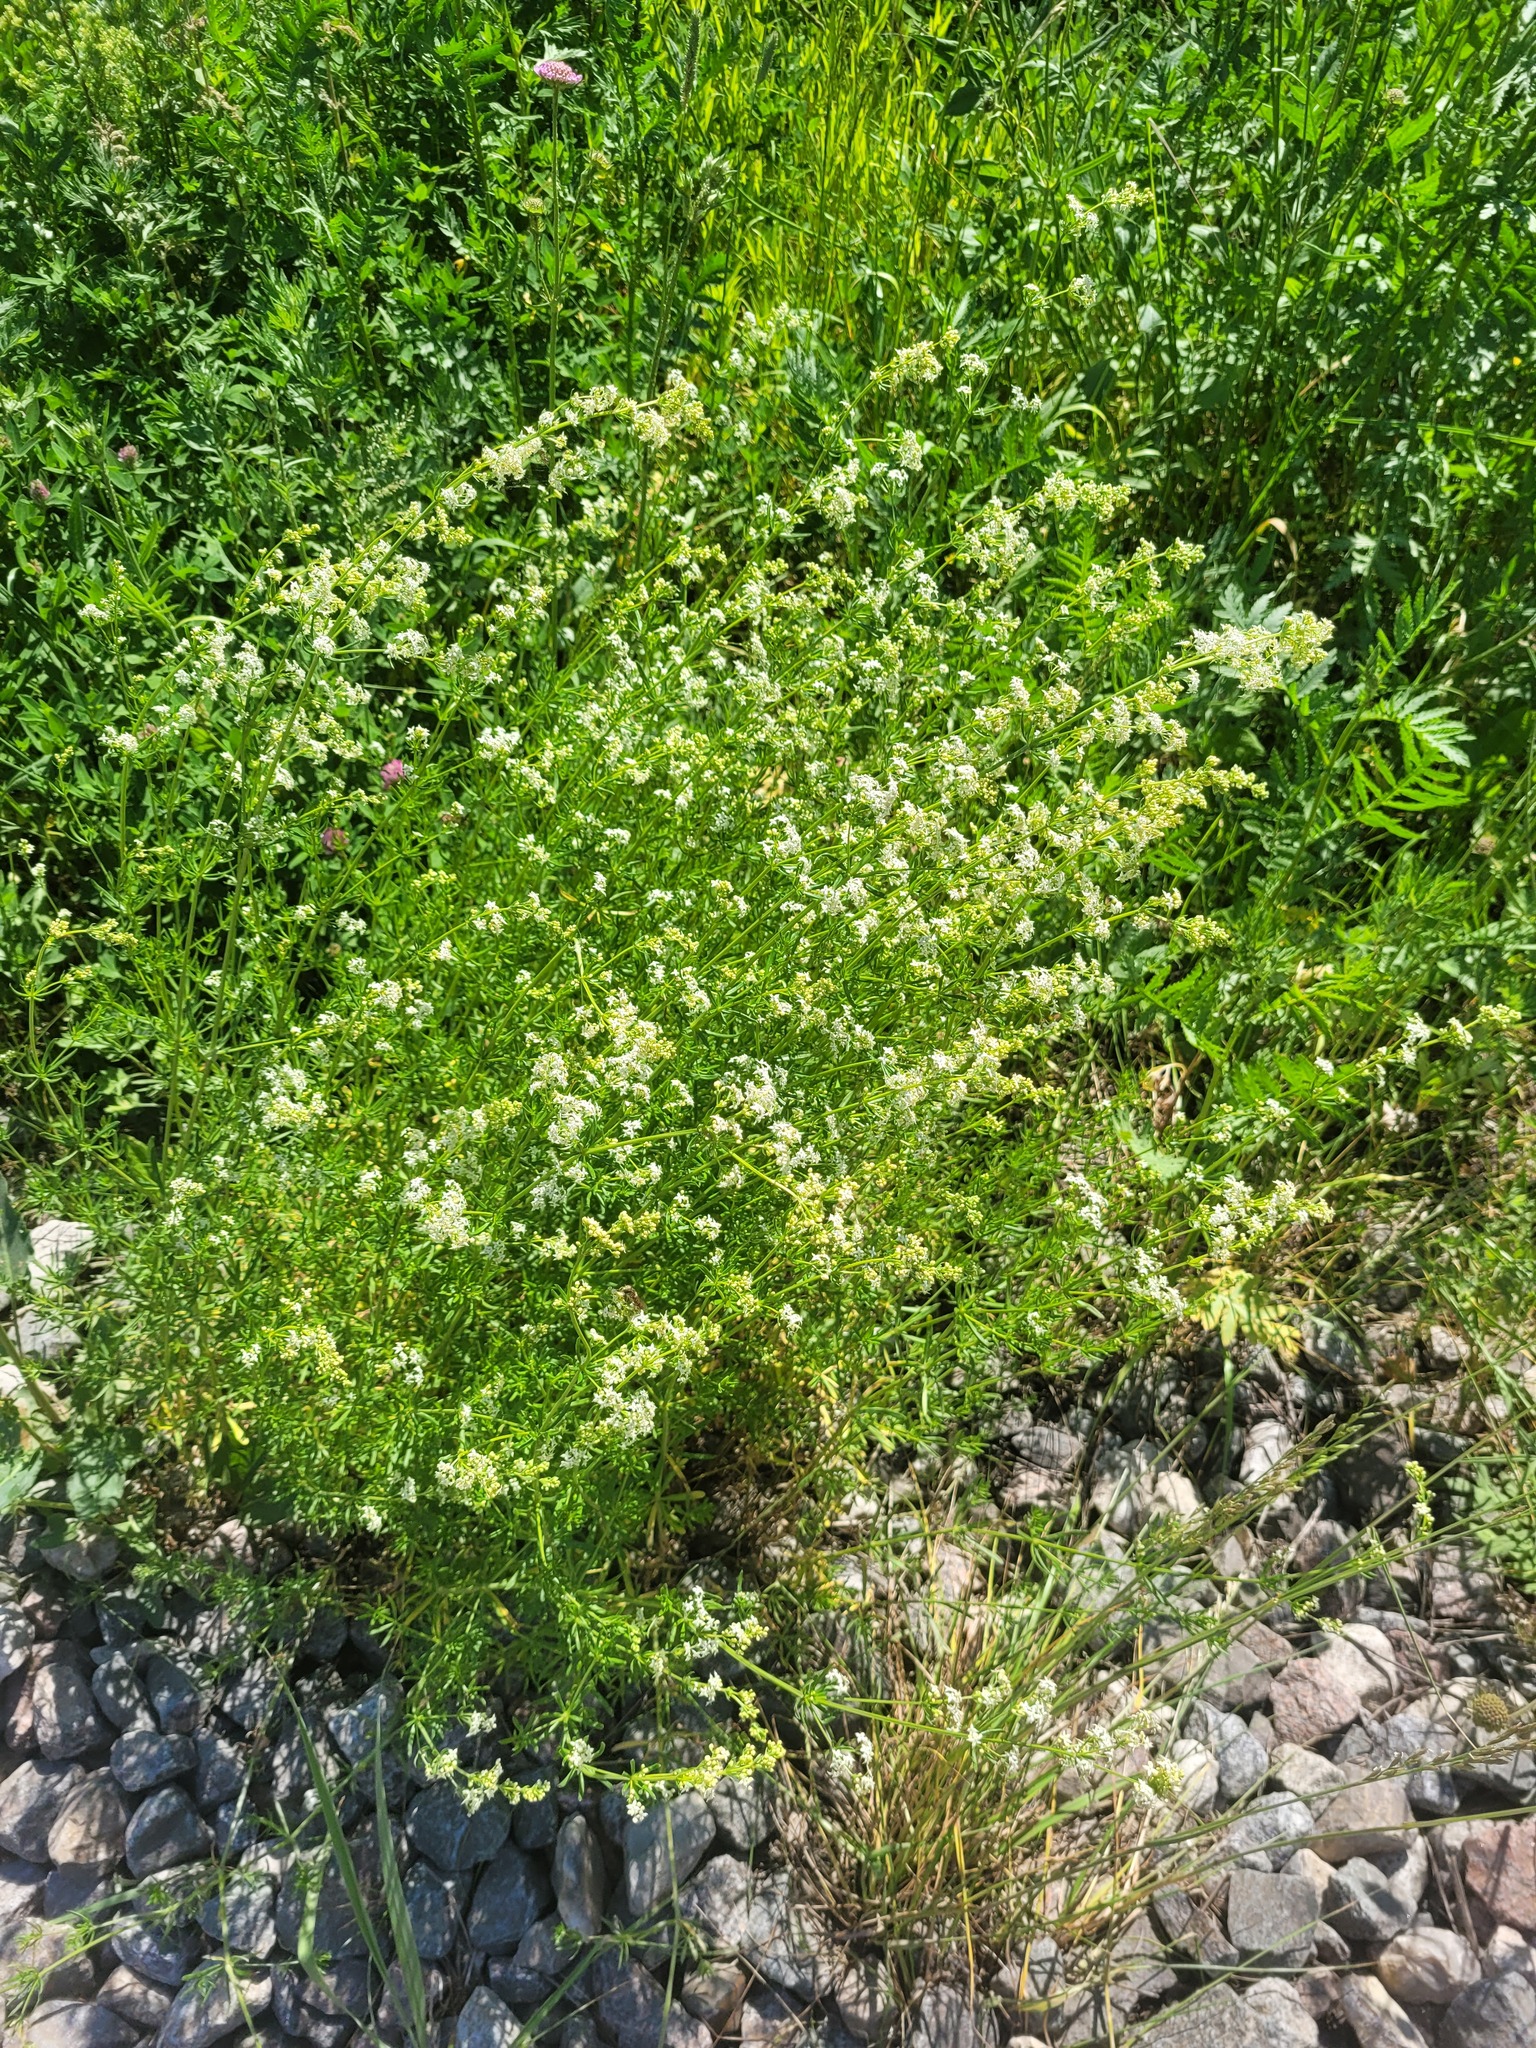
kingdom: Plantae
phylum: Tracheophyta
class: Magnoliopsida
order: Gentianales
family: Rubiaceae
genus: Galium
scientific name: Galium mollugo
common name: Hedge bedstraw
